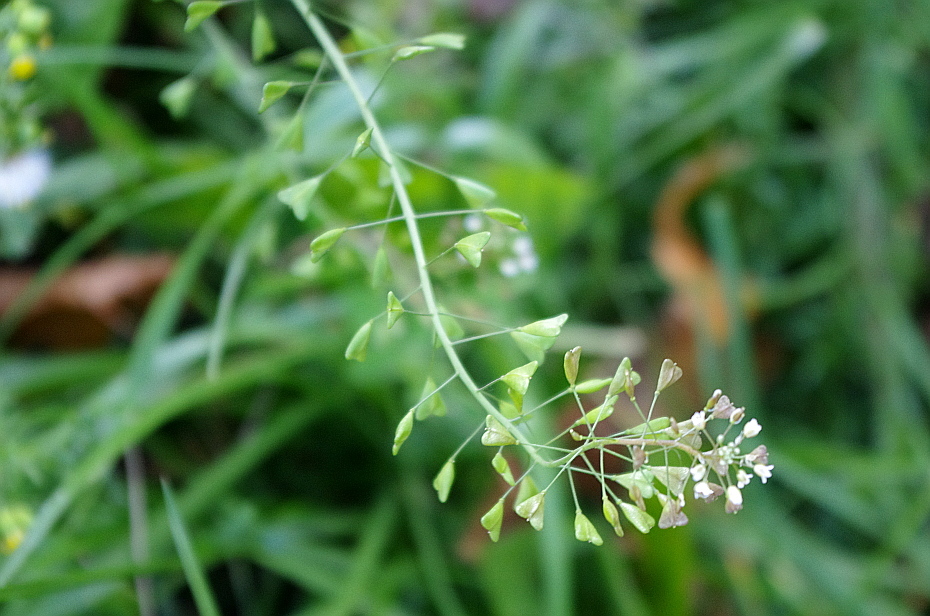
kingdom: Plantae
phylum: Tracheophyta
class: Magnoliopsida
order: Brassicales
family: Brassicaceae
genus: Capsella
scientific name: Capsella bursa-pastoris
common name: Shepherd's purse
